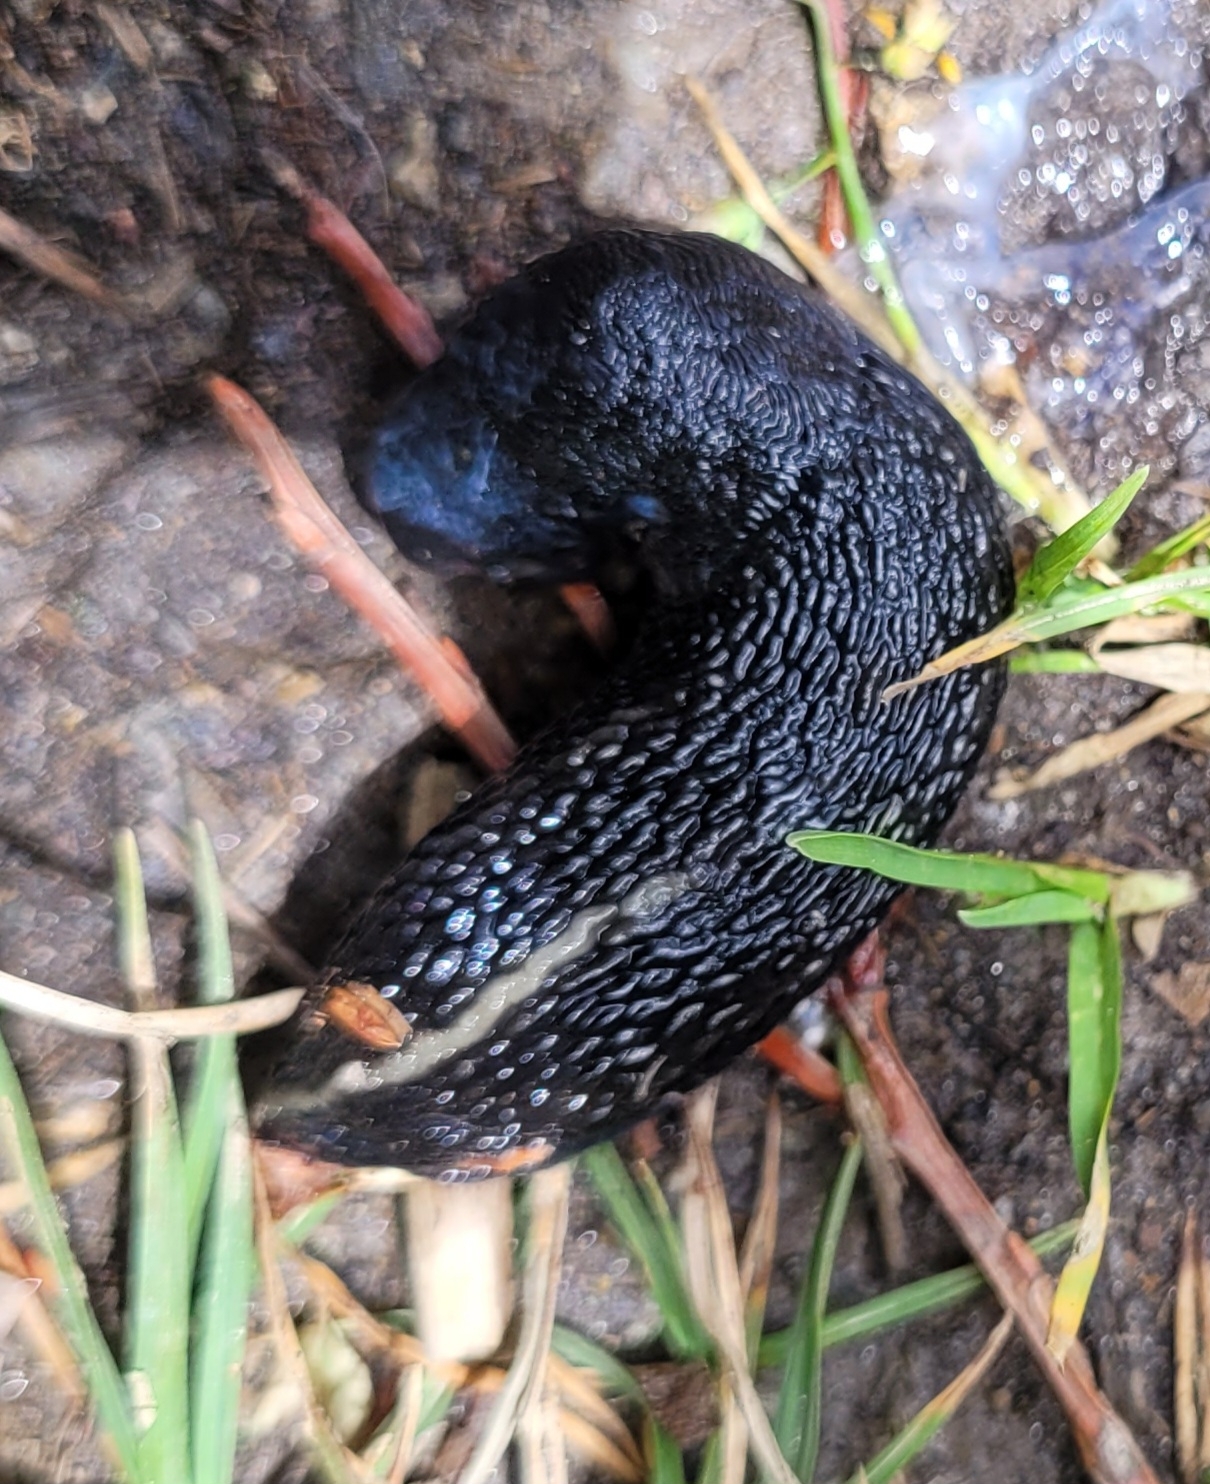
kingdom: Animalia
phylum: Mollusca
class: Gastropoda
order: Stylommatophora
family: Limacidae
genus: Limax
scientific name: Limax cinereoniger
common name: Ash-black slug
